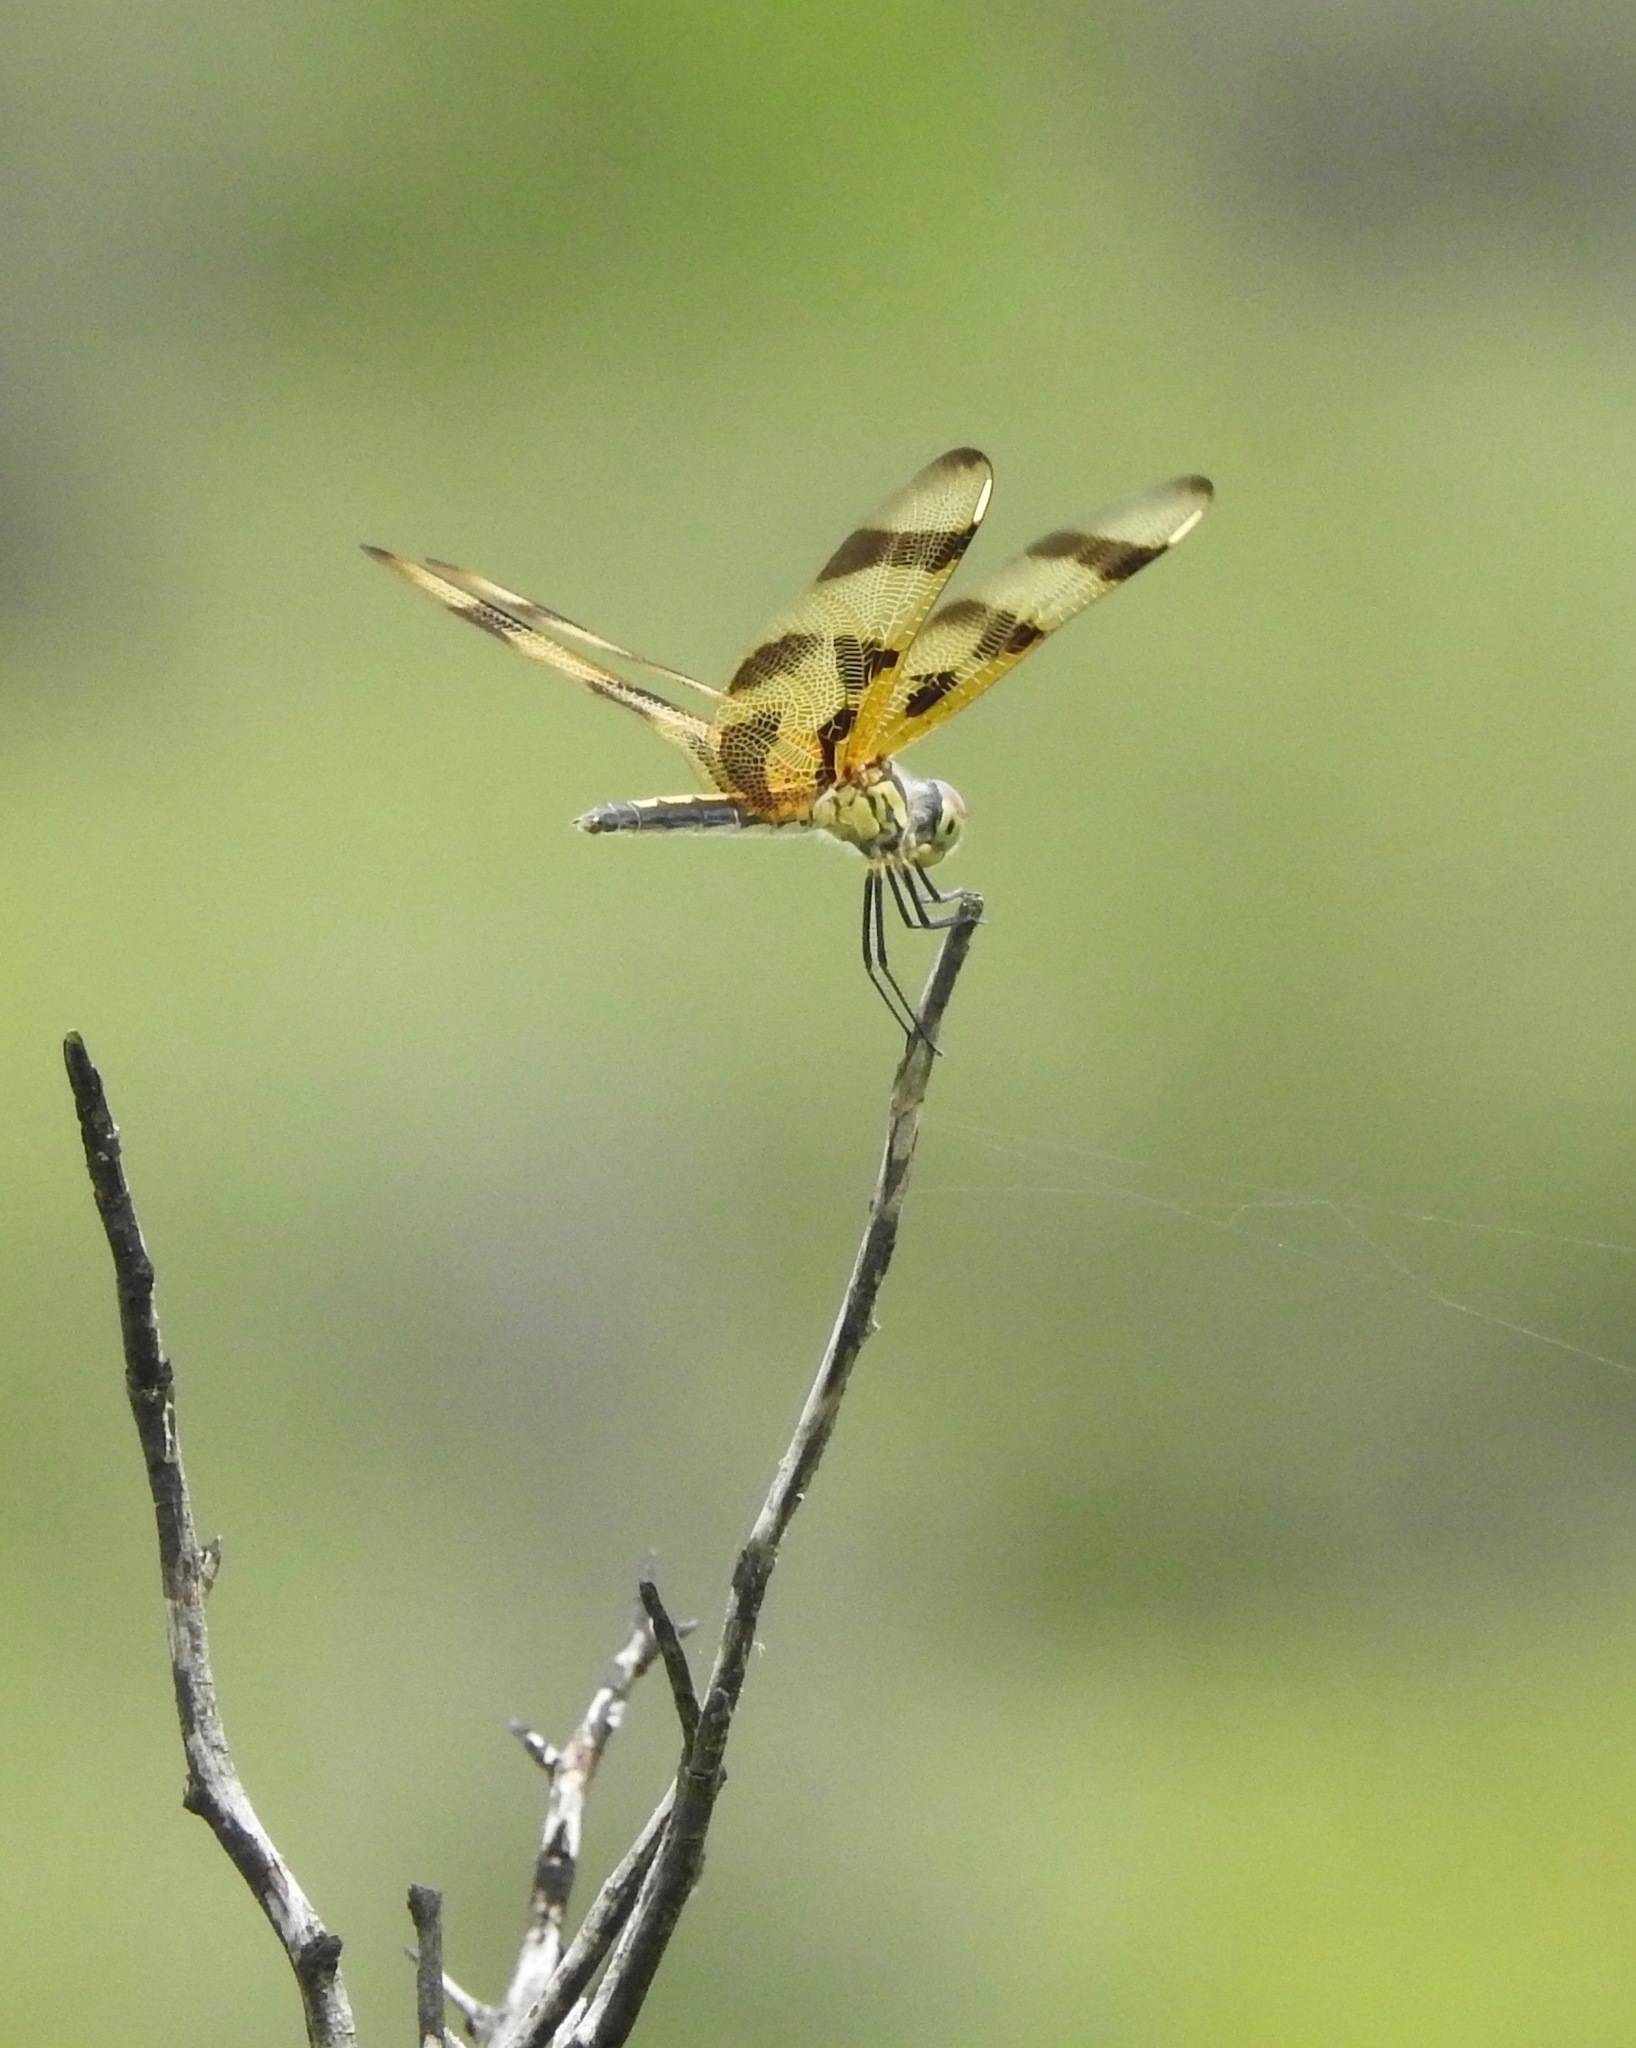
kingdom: Animalia
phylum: Arthropoda
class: Insecta
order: Odonata
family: Libellulidae
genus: Celithemis
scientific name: Celithemis eponina
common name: Halloween pennant
